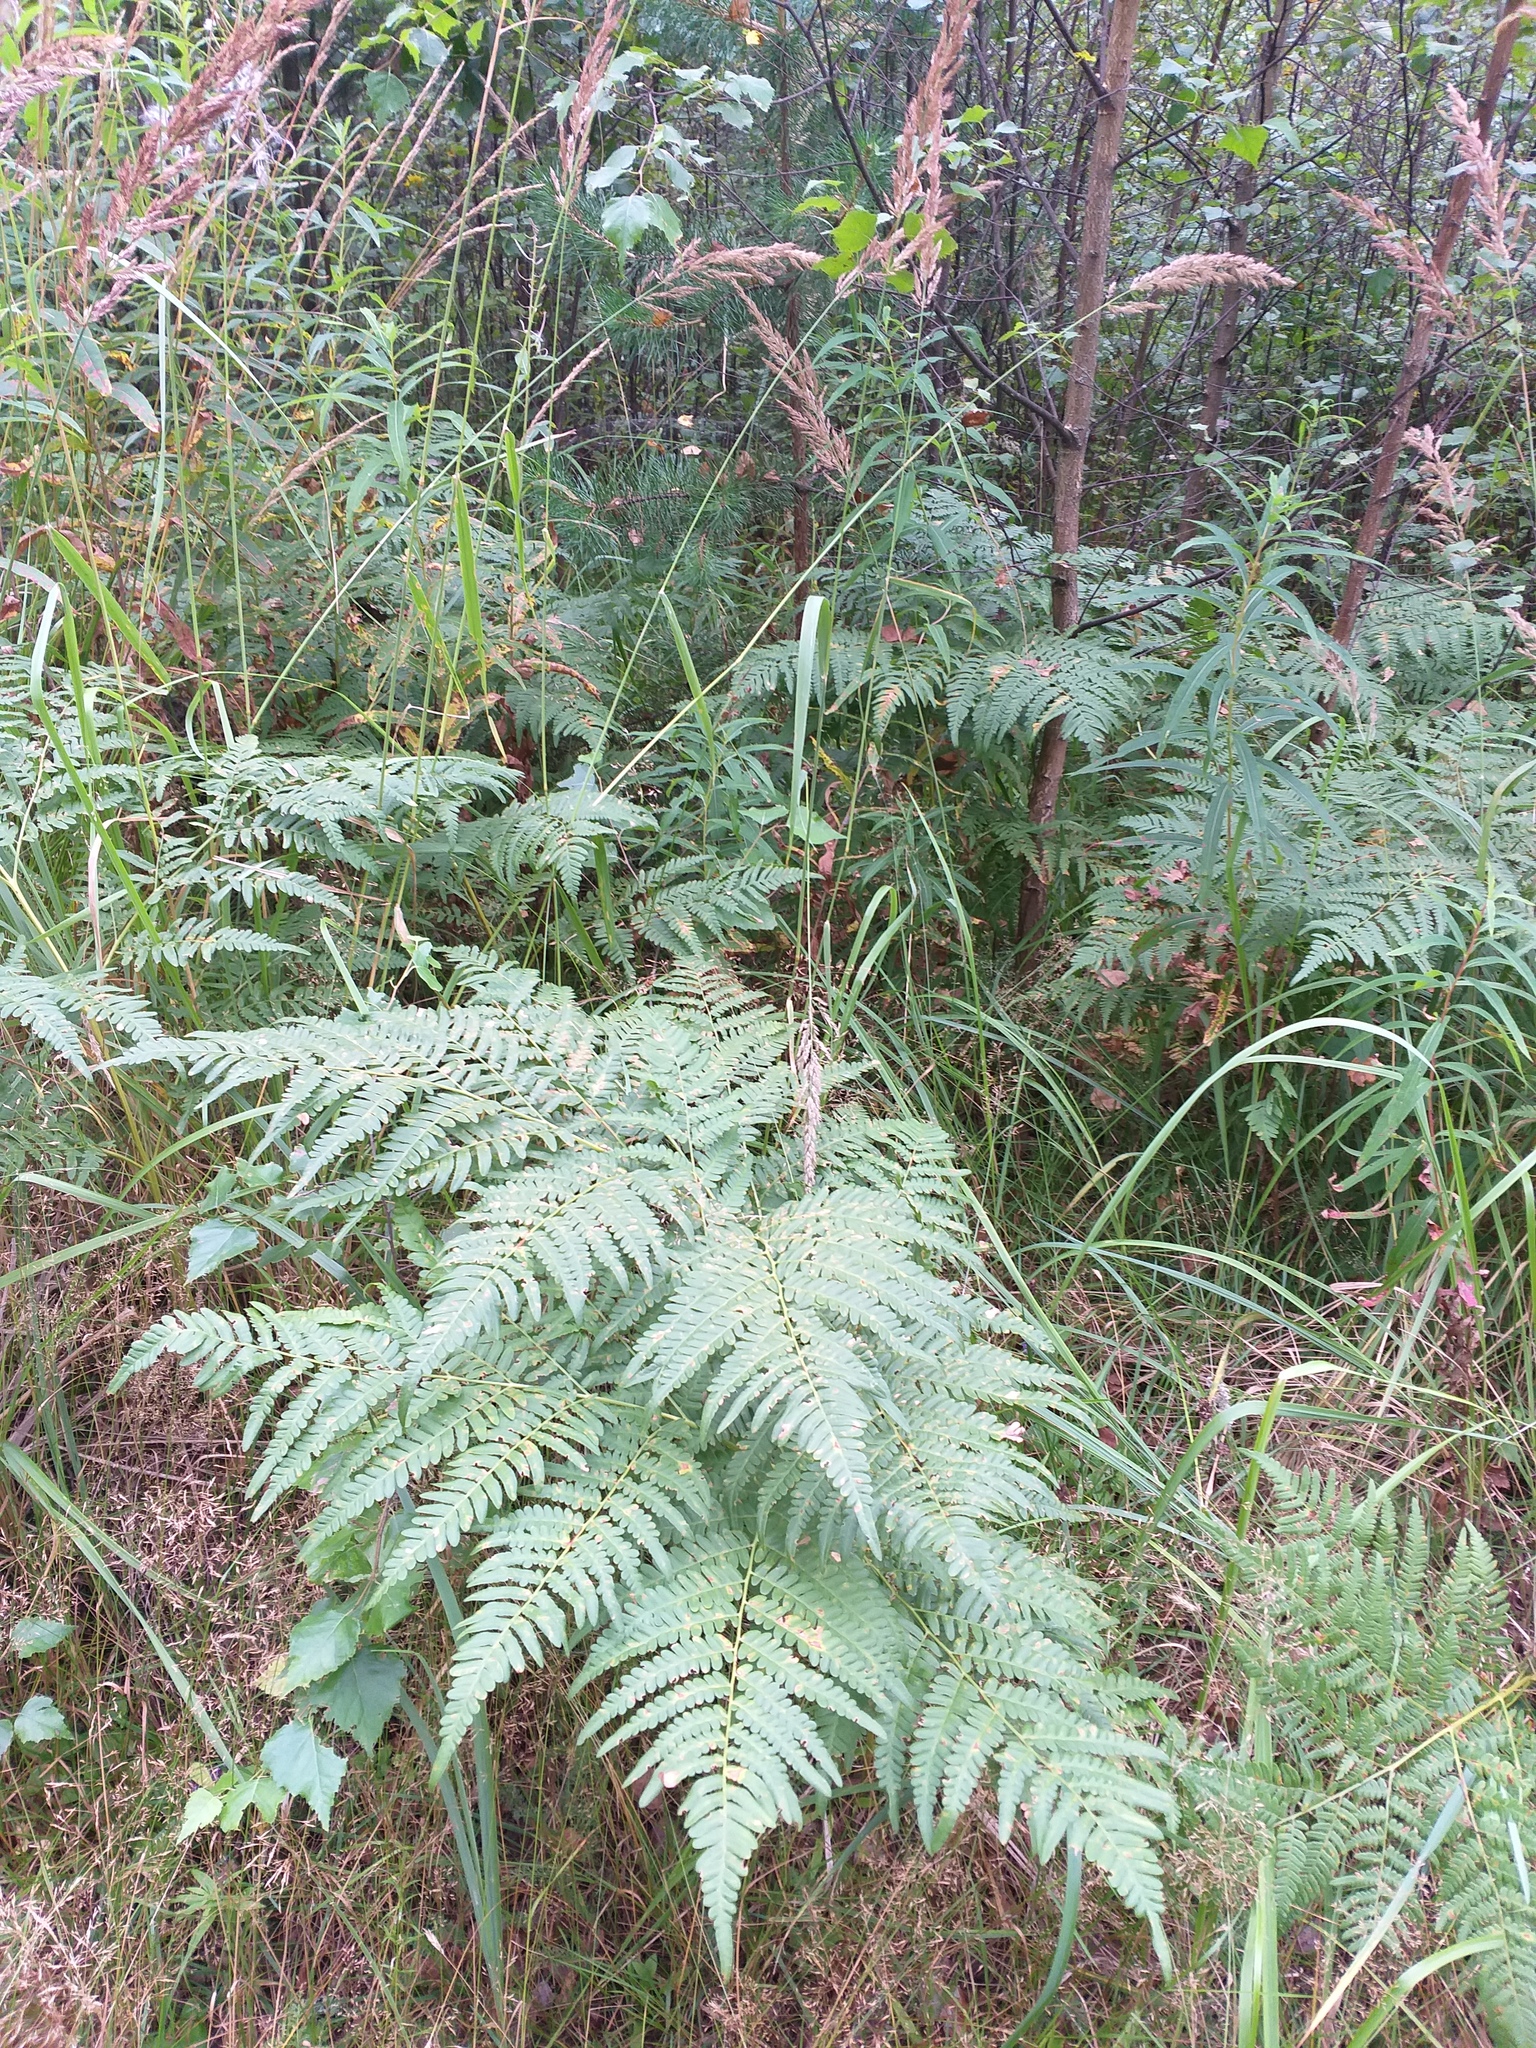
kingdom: Plantae
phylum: Tracheophyta
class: Polypodiopsida
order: Polypodiales
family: Dennstaedtiaceae
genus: Pteridium
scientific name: Pteridium aquilinum
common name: Bracken
